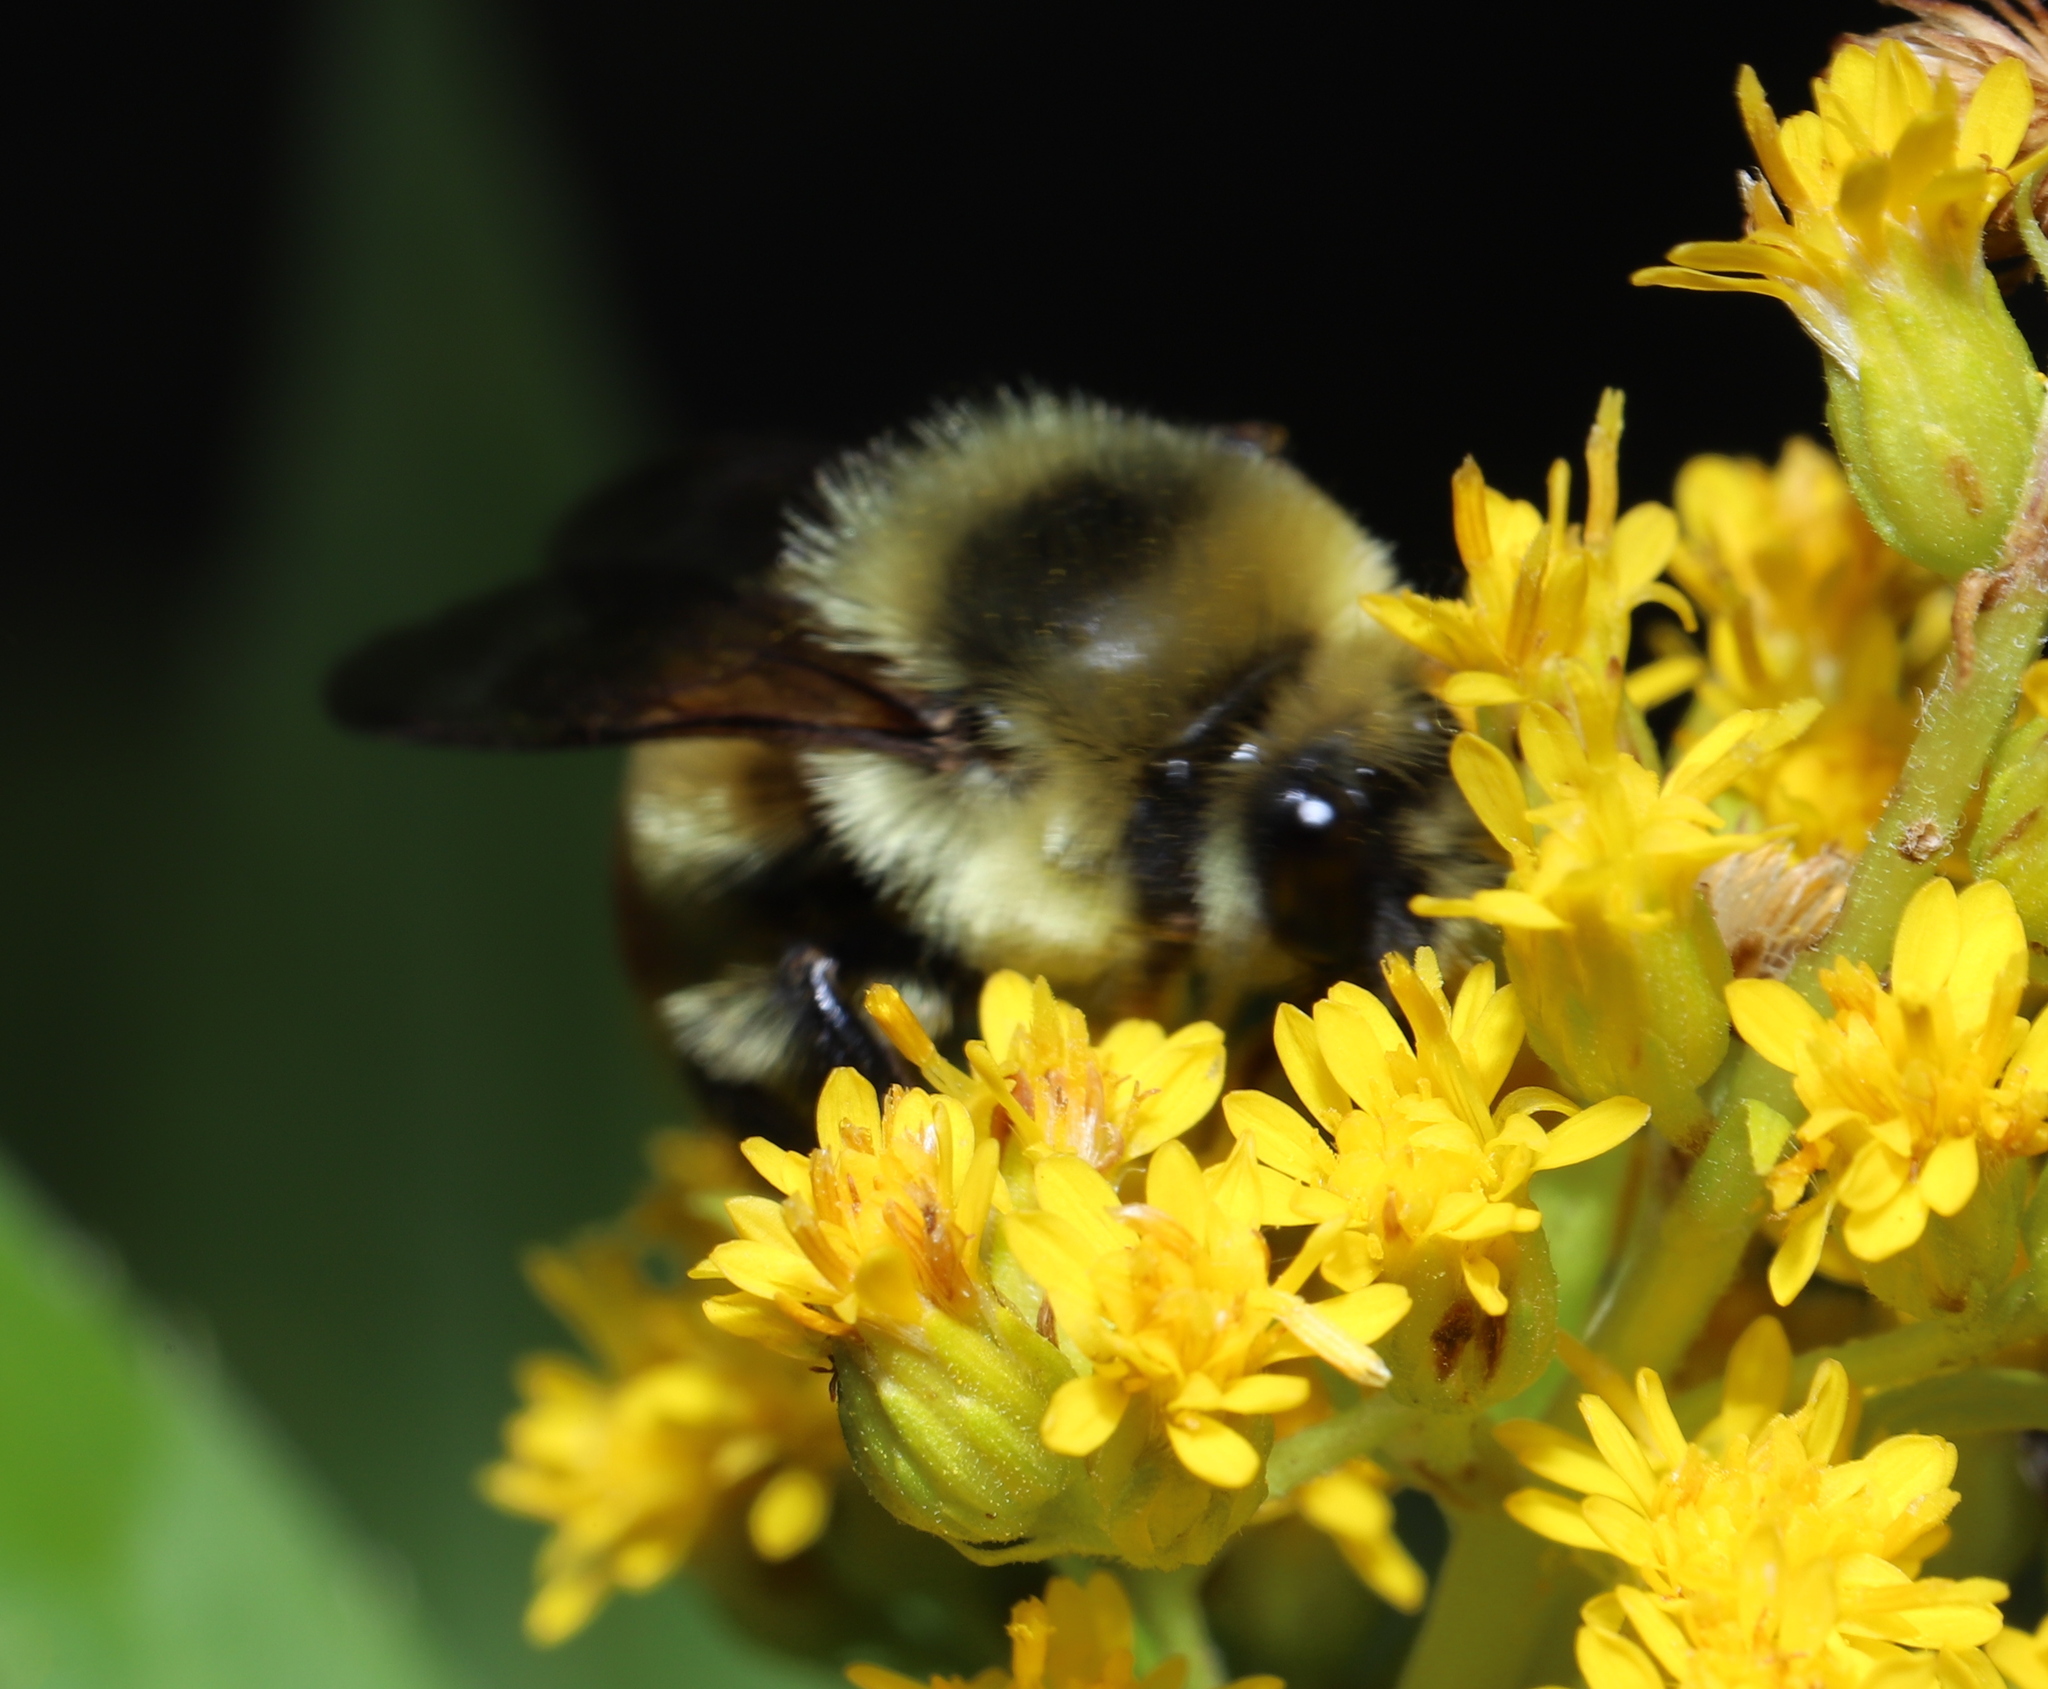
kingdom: Animalia
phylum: Arthropoda
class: Insecta
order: Hymenoptera
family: Apidae
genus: Bombus
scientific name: Bombus rufocinctus
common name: Red-belted bumble bee
